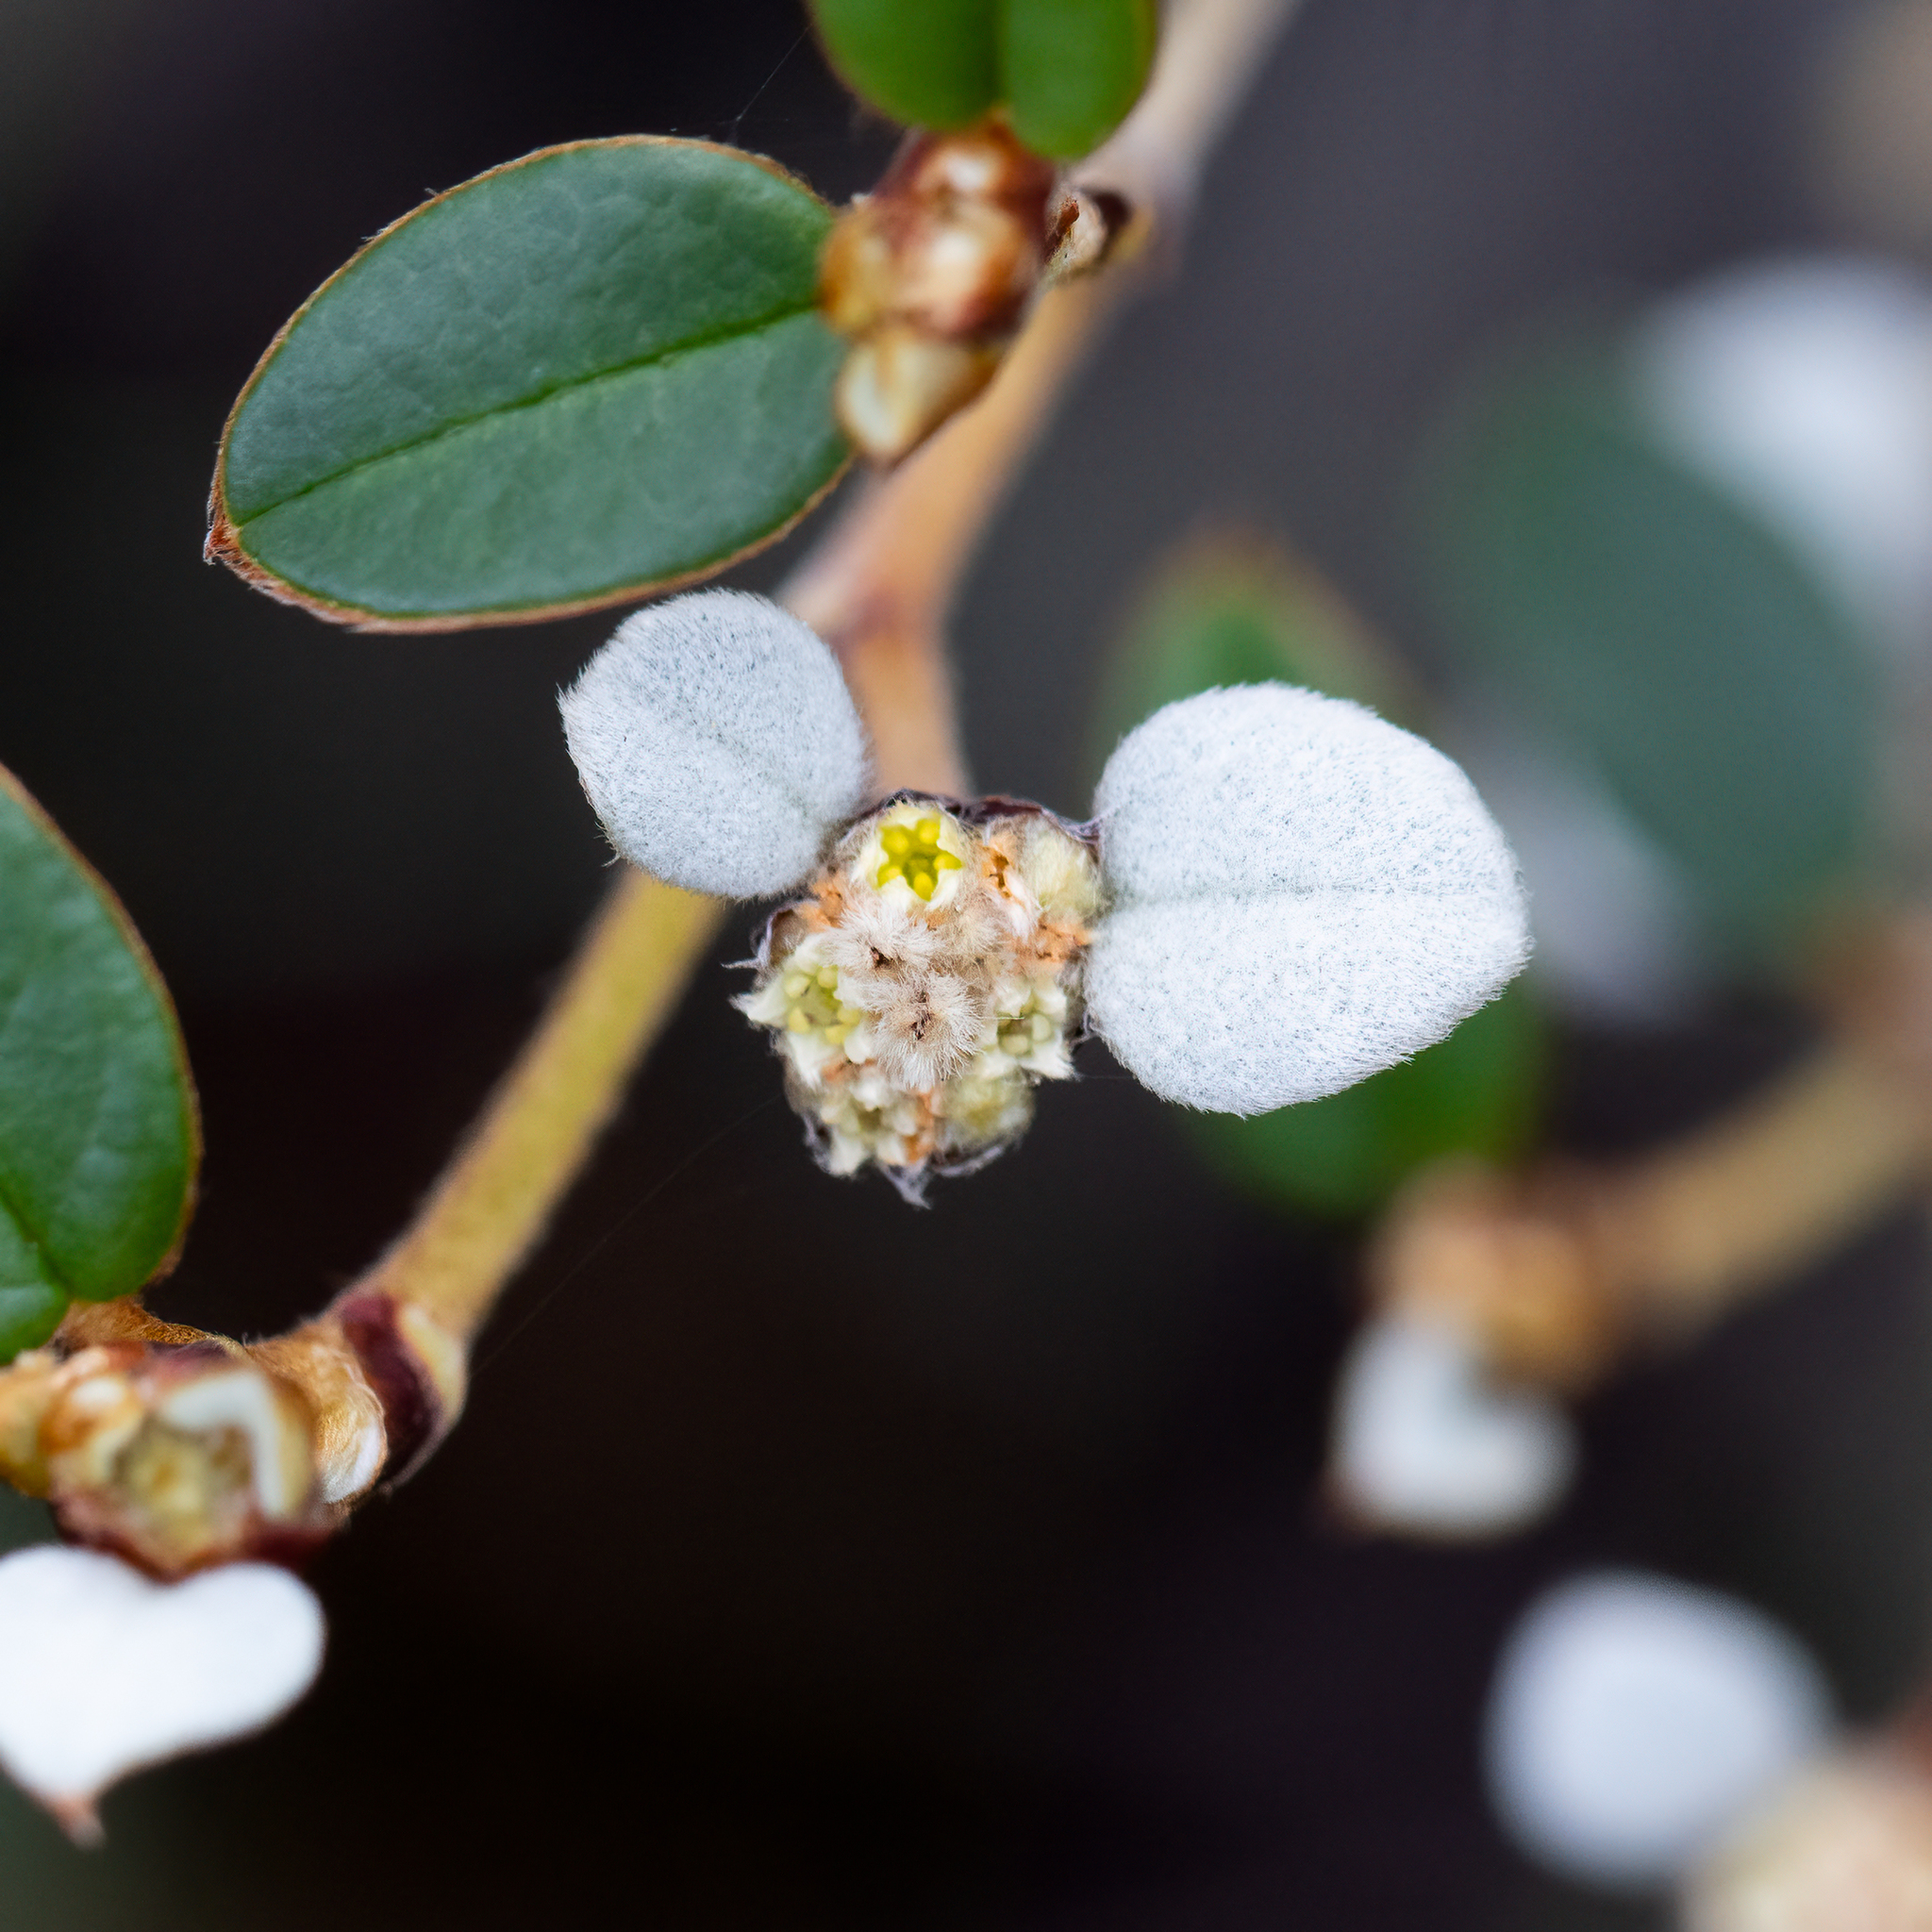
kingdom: Plantae
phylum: Tracheophyta
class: Magnoliopsida
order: Rosales
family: Rhamnaceae
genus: Spyridium
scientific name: Spyridium thymifolium
